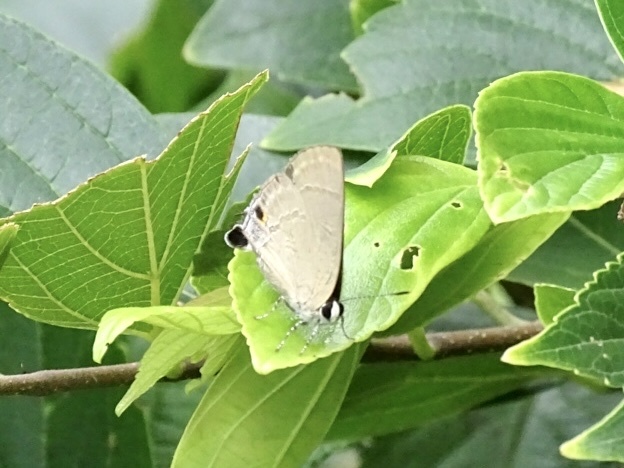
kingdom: Animalia
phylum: Arthropoda
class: Insecta
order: Lepidoptera
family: Lycaenidae
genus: Rapala
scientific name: Rapala manea
